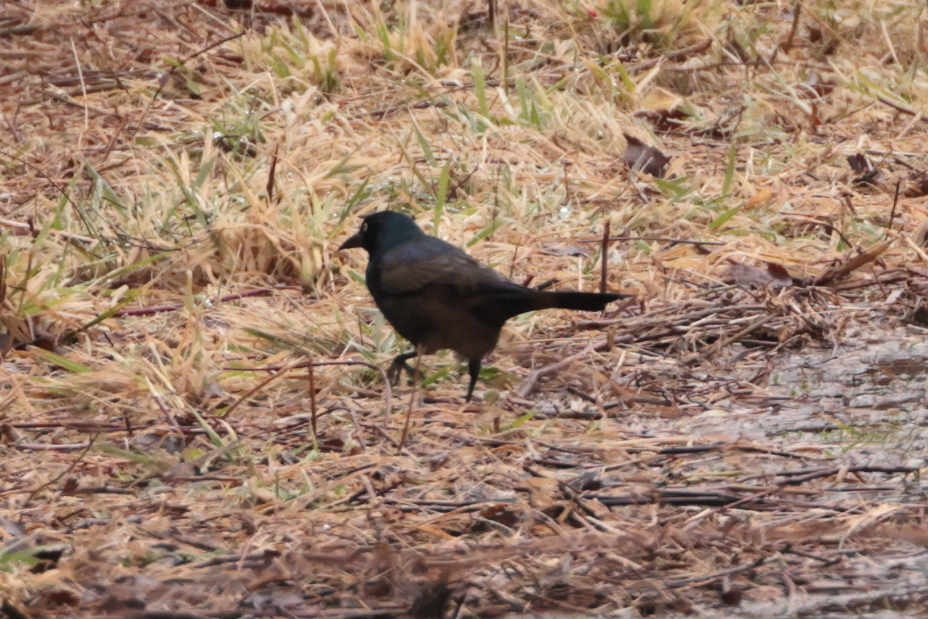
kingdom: Animalia
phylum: Chordata
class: Aves
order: Passeriformes
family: Icteridae
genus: Quiscalus
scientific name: Quiscalus quiscula
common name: Common grackle
